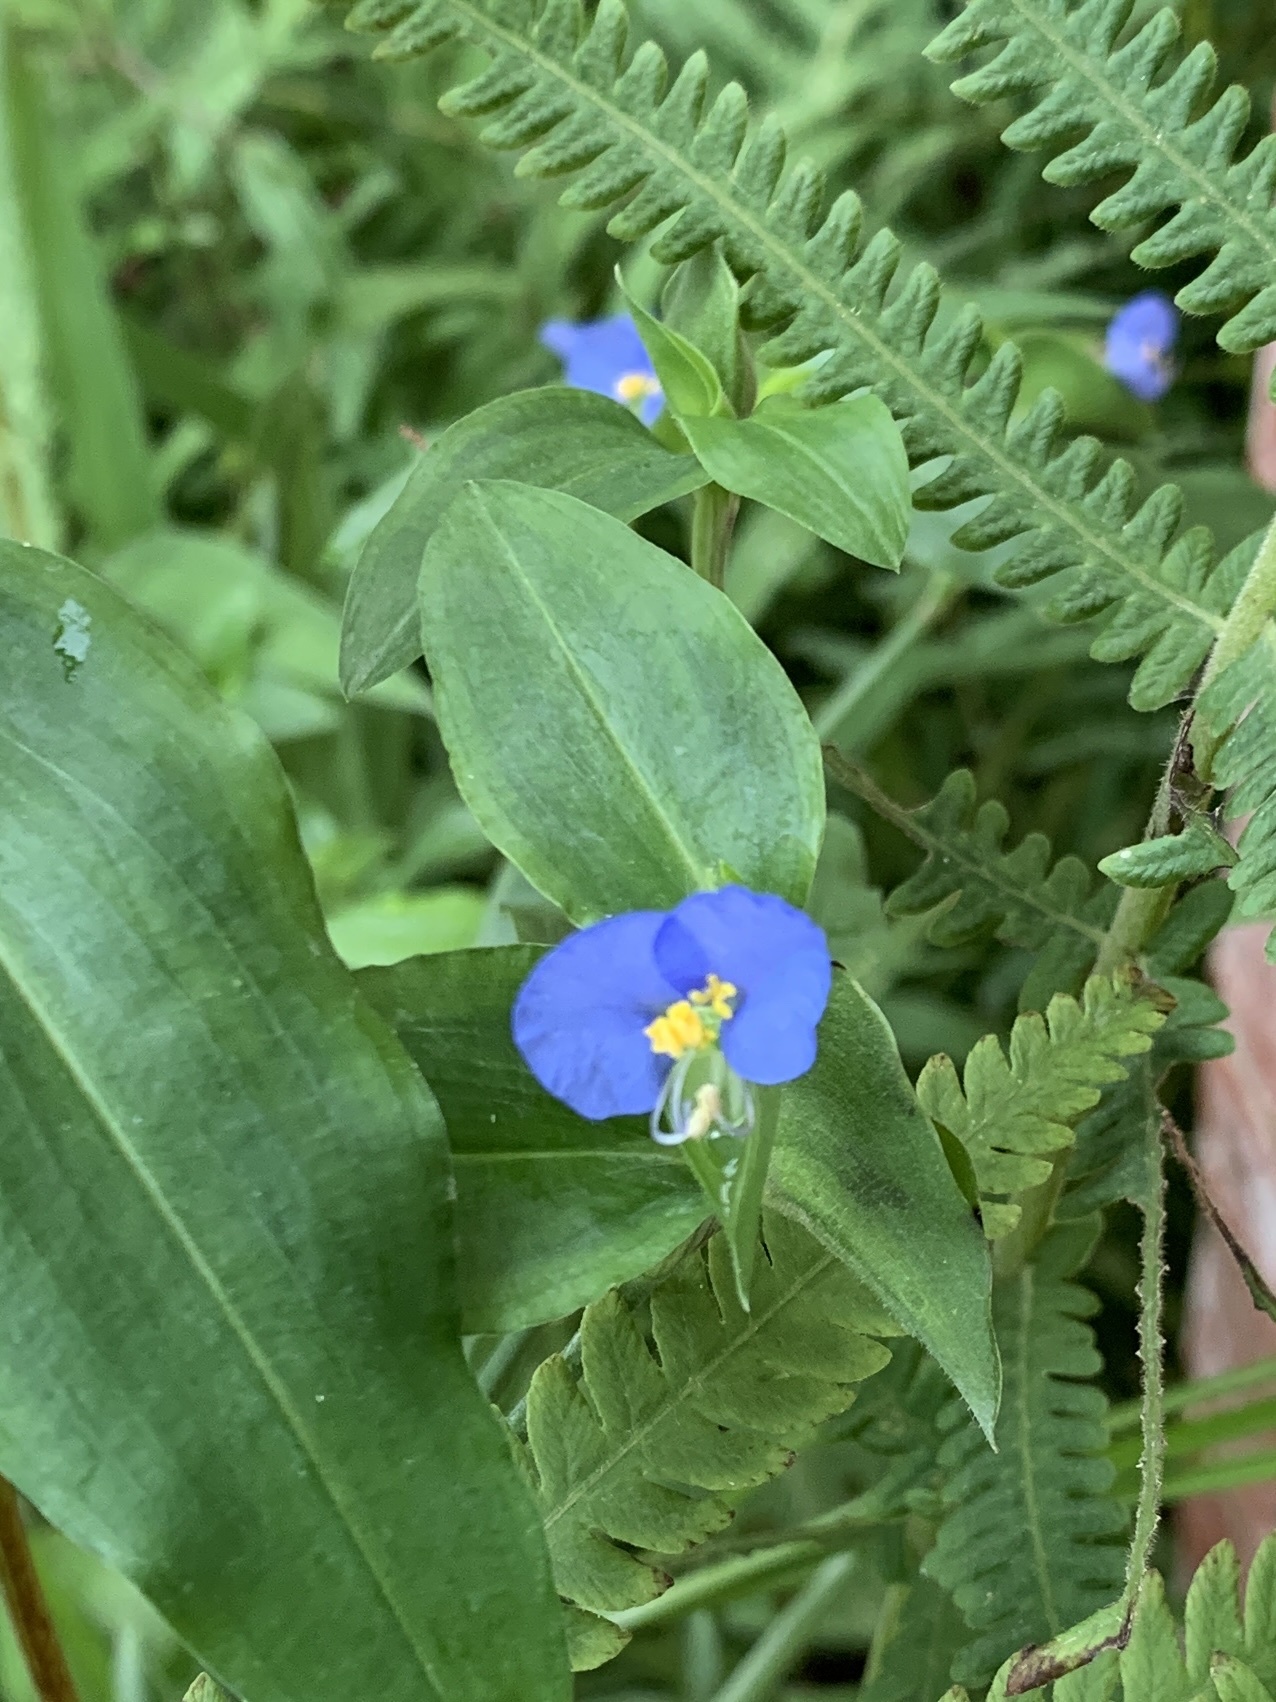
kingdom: Plantae
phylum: Tracheophyta
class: Liliopsida
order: Commelinales
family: Commelinaceae
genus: Commelina
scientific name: Commelina erecta
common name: Blousel blommetjie
